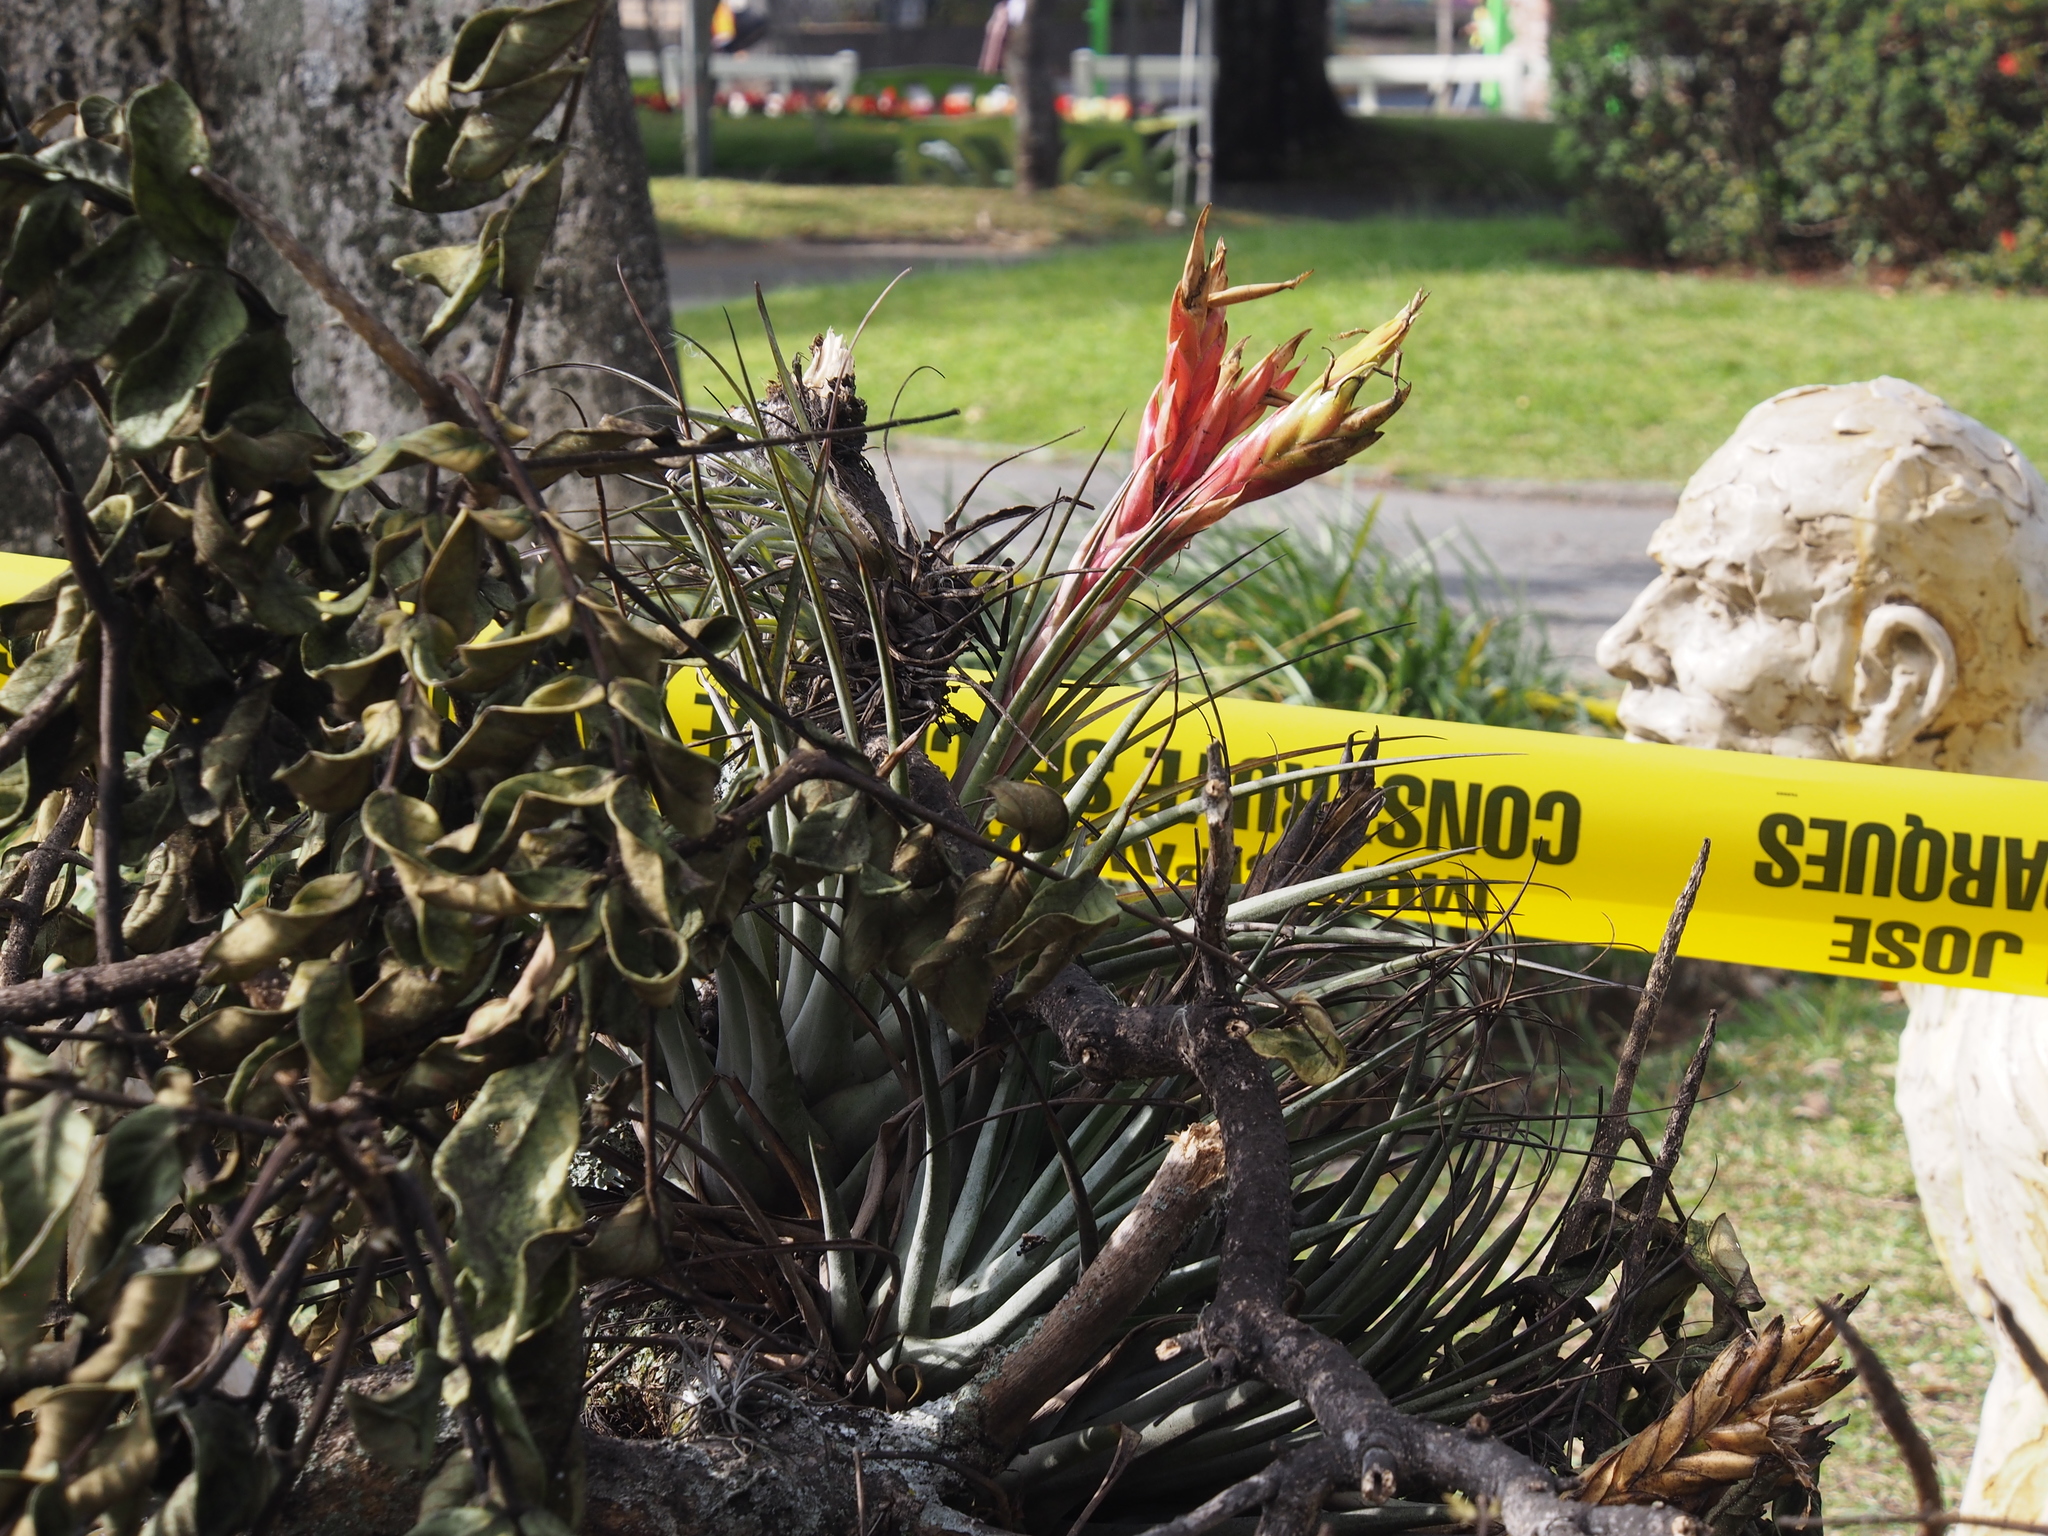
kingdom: Plantae
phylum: Tracheophyta
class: Liliopsida
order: Poales
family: Bromeliaceae
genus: Tillandsia
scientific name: Tillandsia fasciculata
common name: Giant airplant
